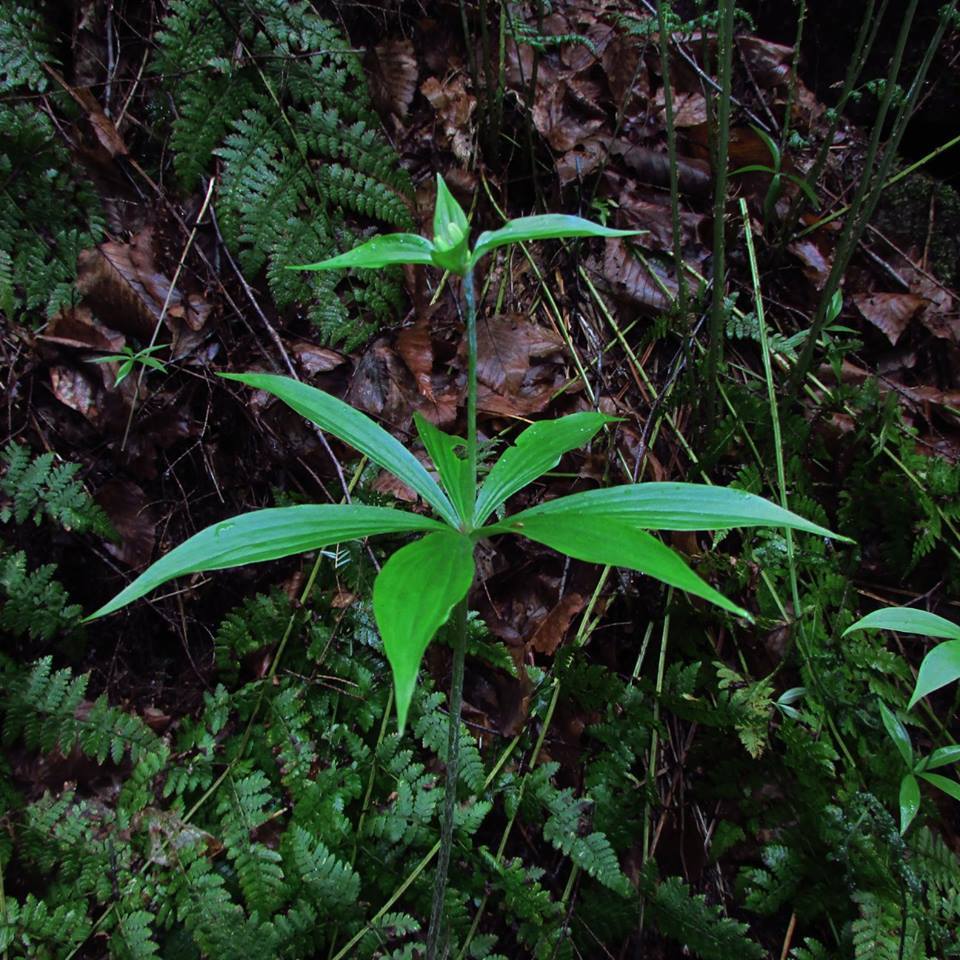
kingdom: Plantae
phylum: Tracheophyta
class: Liliopsida
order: Liliales
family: Liliaceae
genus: Medeola
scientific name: Medeola virginiana
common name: Indian cucumber-root
